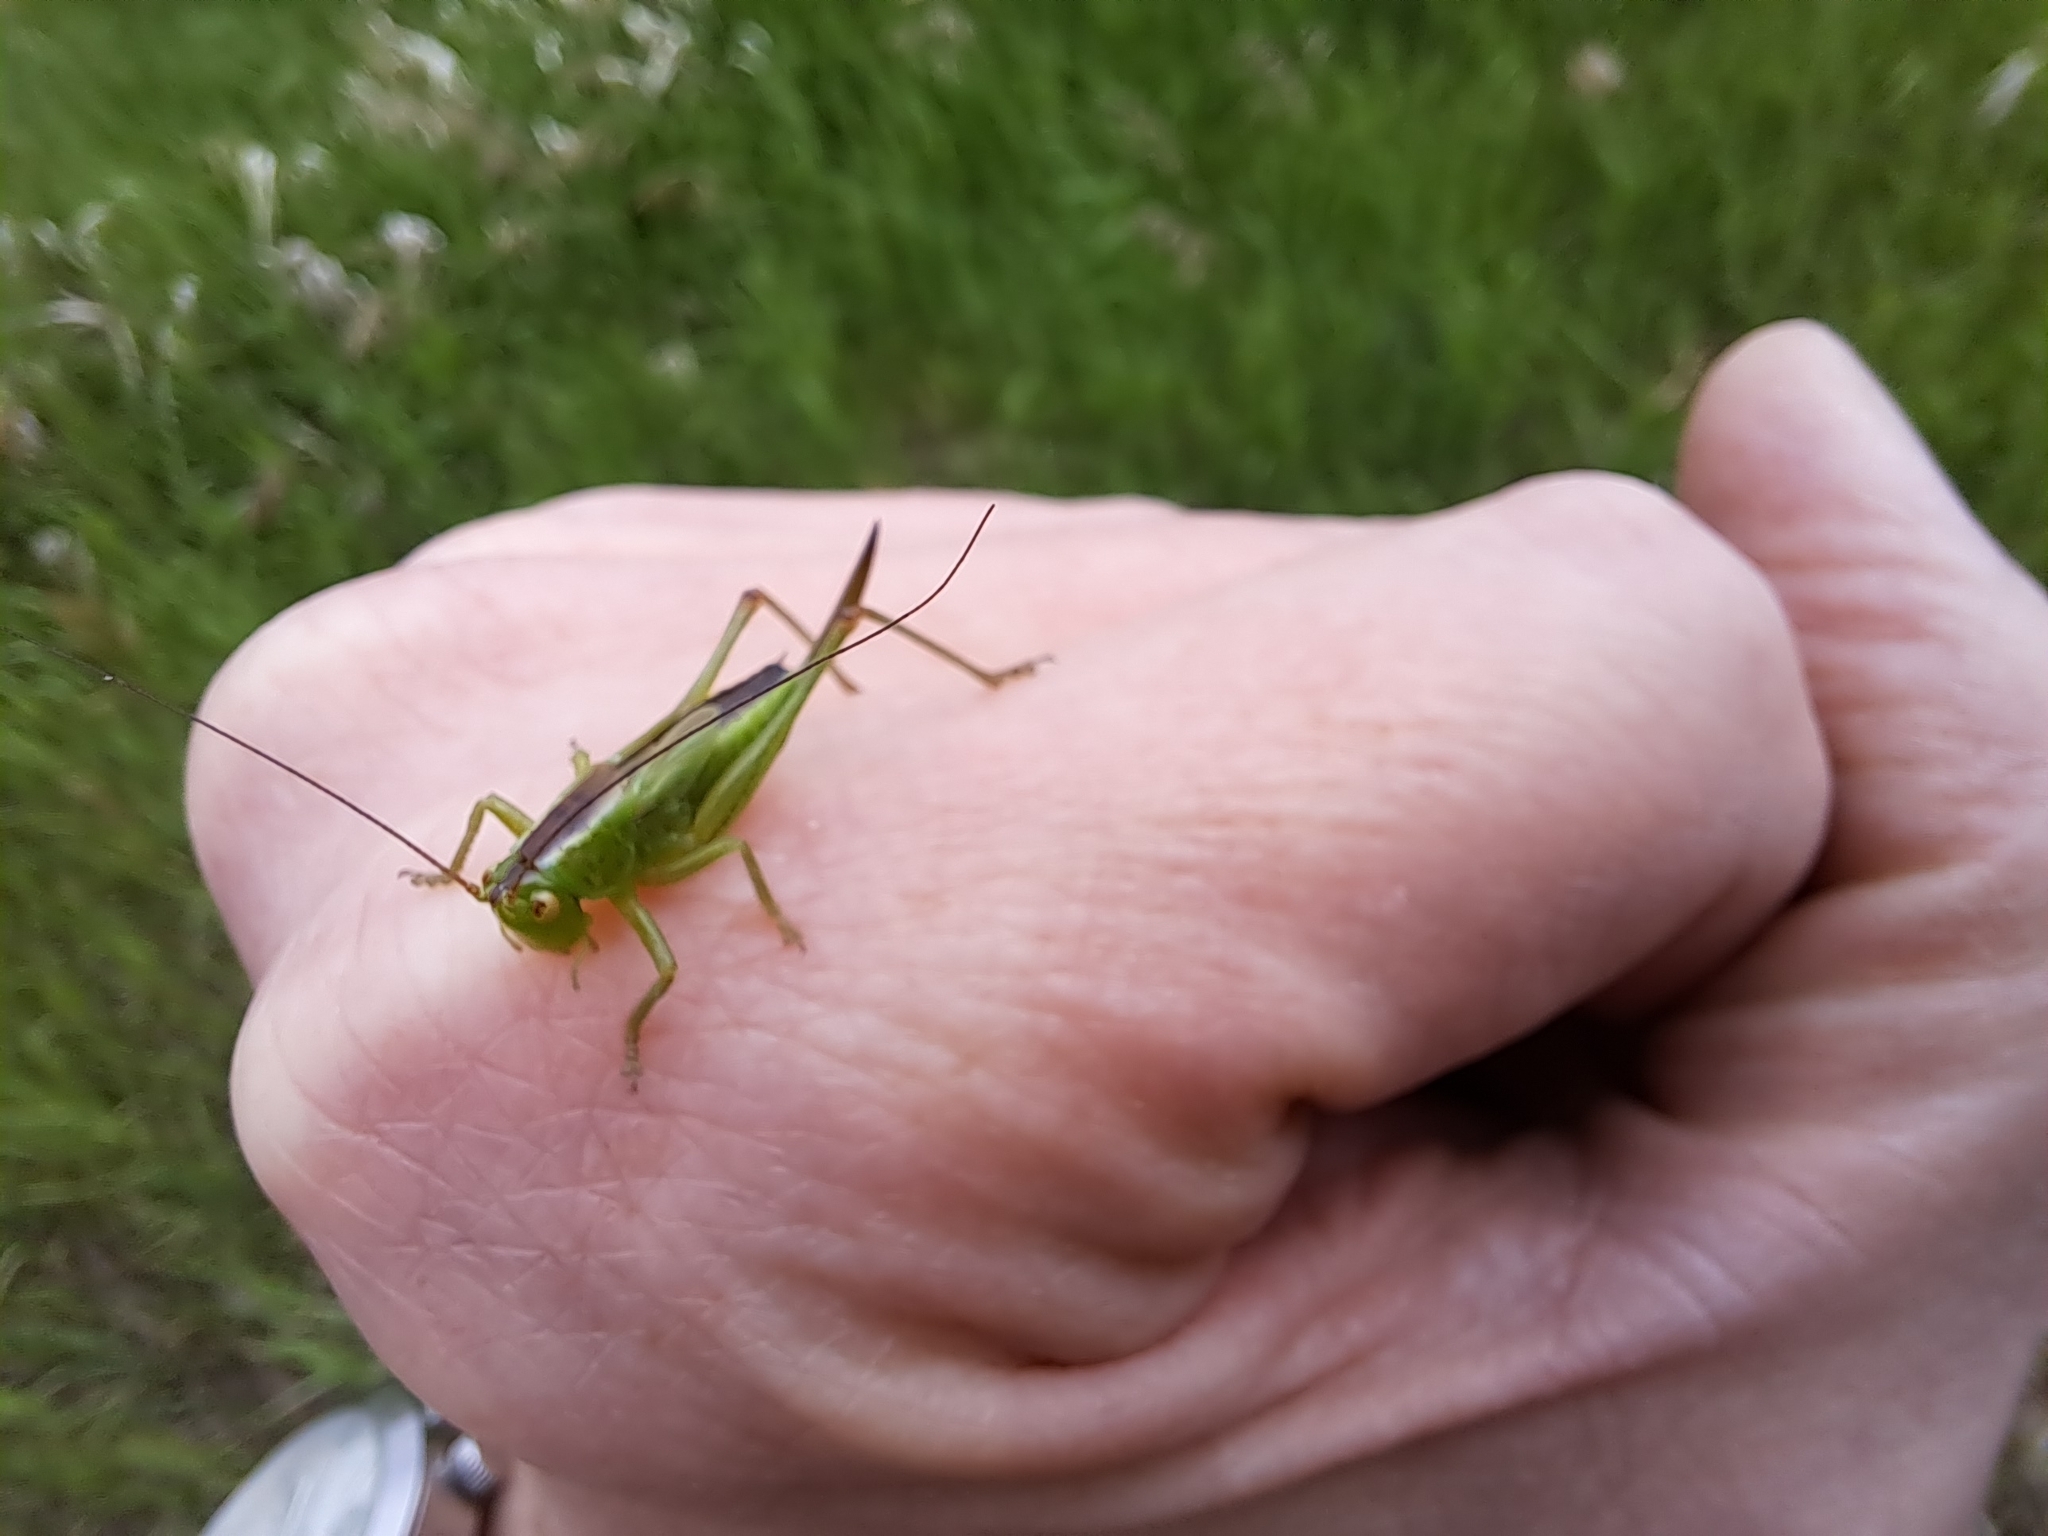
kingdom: Animalia
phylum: Arthropoda
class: Insecta
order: Orthoptera
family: Tettigoniidae
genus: Orchelimum
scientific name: Orchelimum gladiator
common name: Gladiator meadow katydid
